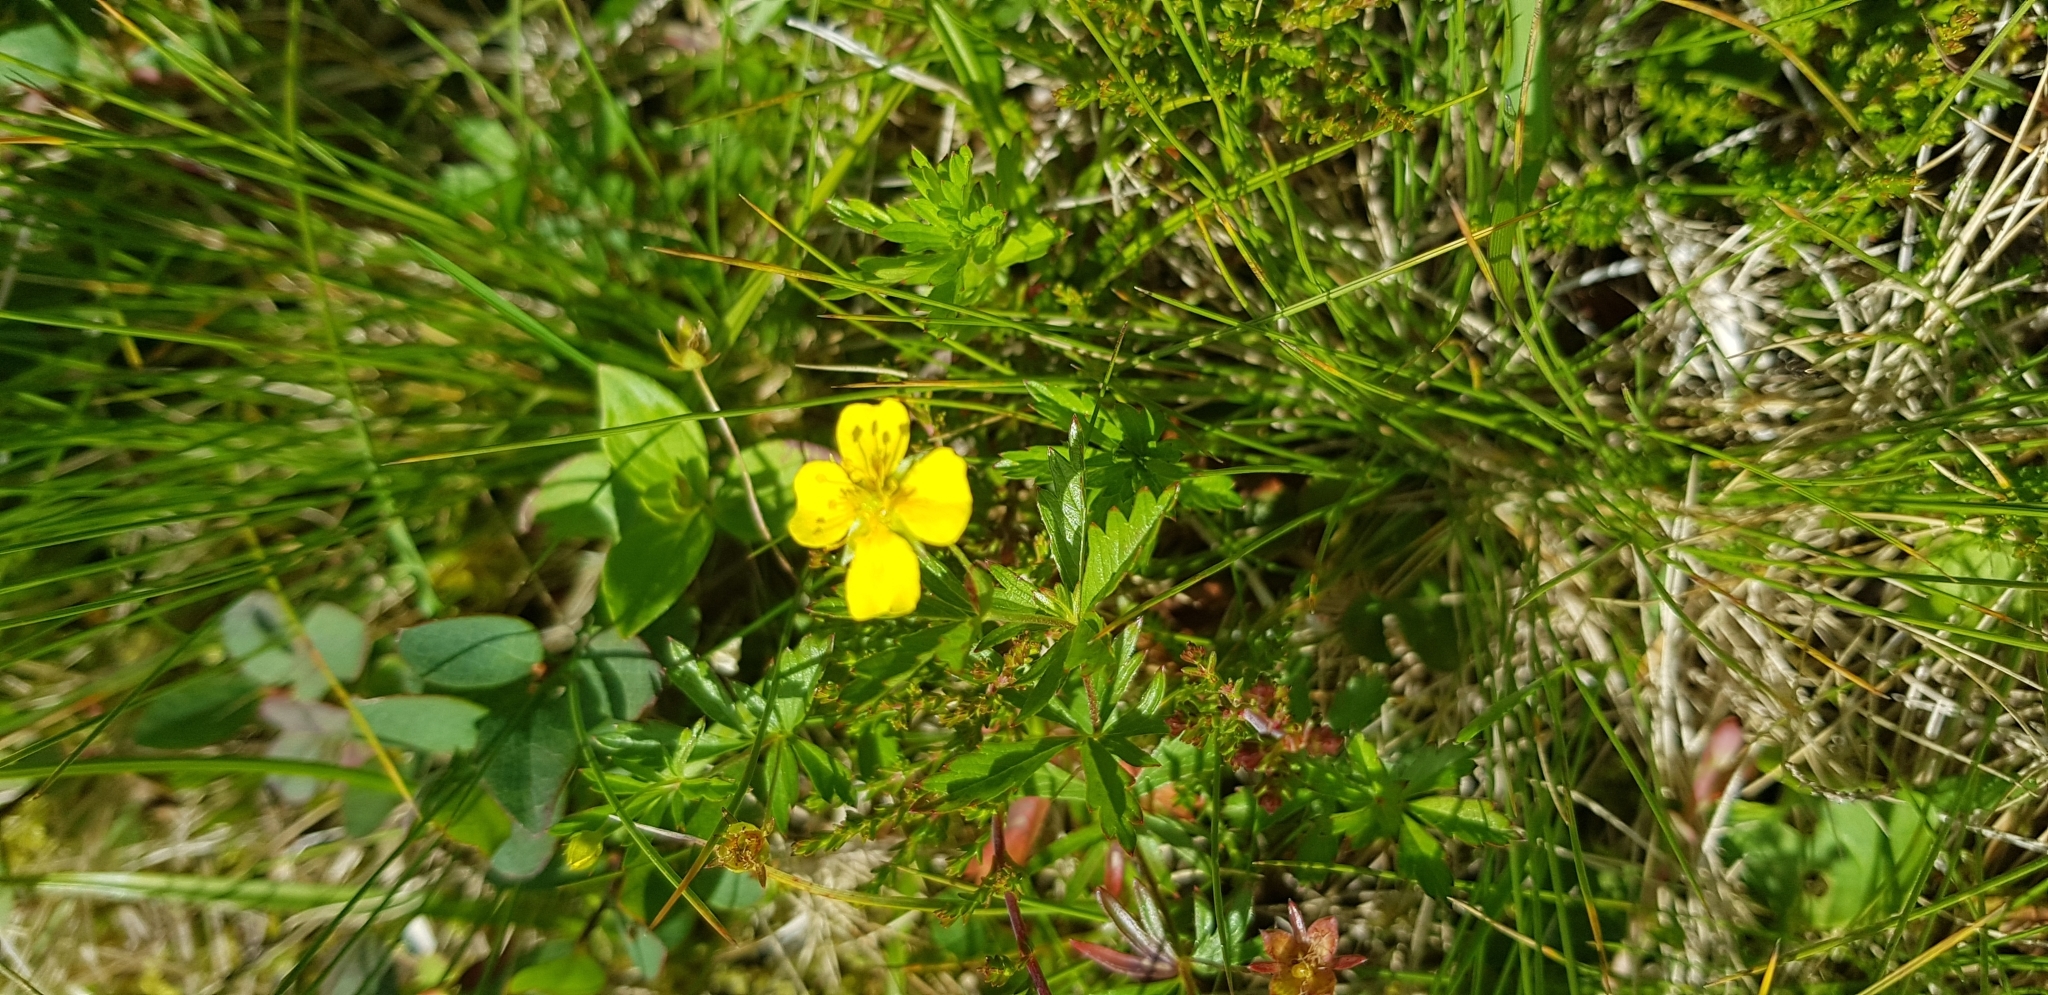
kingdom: Plantae
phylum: Tracheophyta
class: Magnoliopsida
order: Rosales
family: Rosaceae
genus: Potentilla
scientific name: Potentilla erecta
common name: Tormentil
